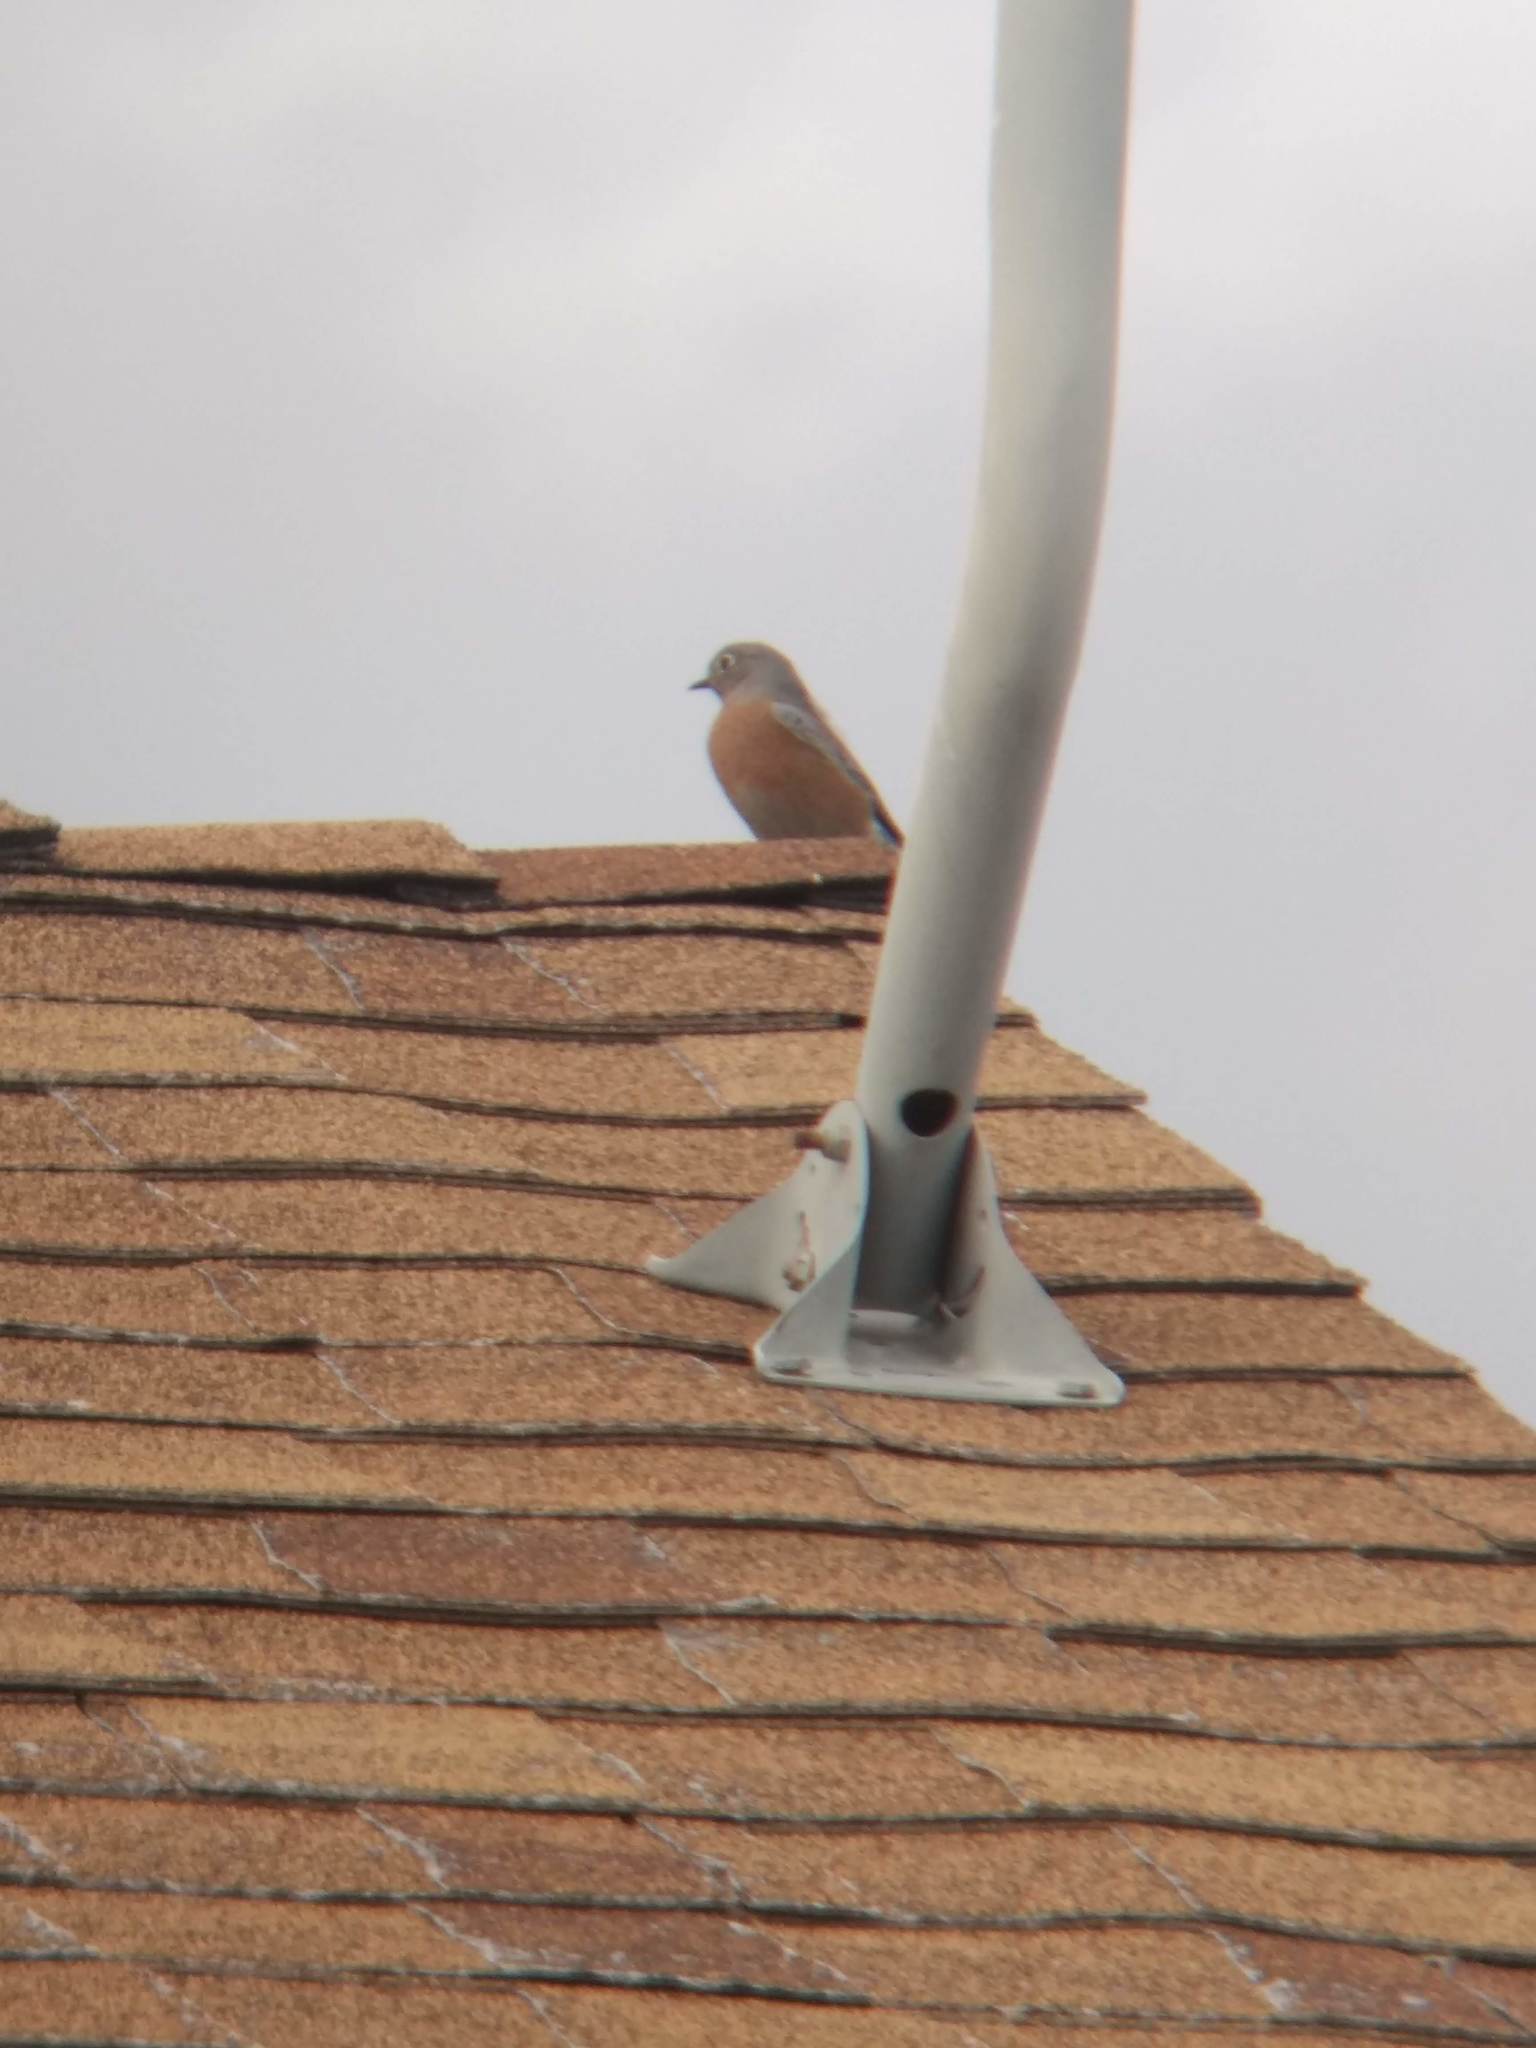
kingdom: Animalia
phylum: Chordata
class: Aves
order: Passeriformes
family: Turdidae
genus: Sialia
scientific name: Sialia mexicana
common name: Western bluebird
